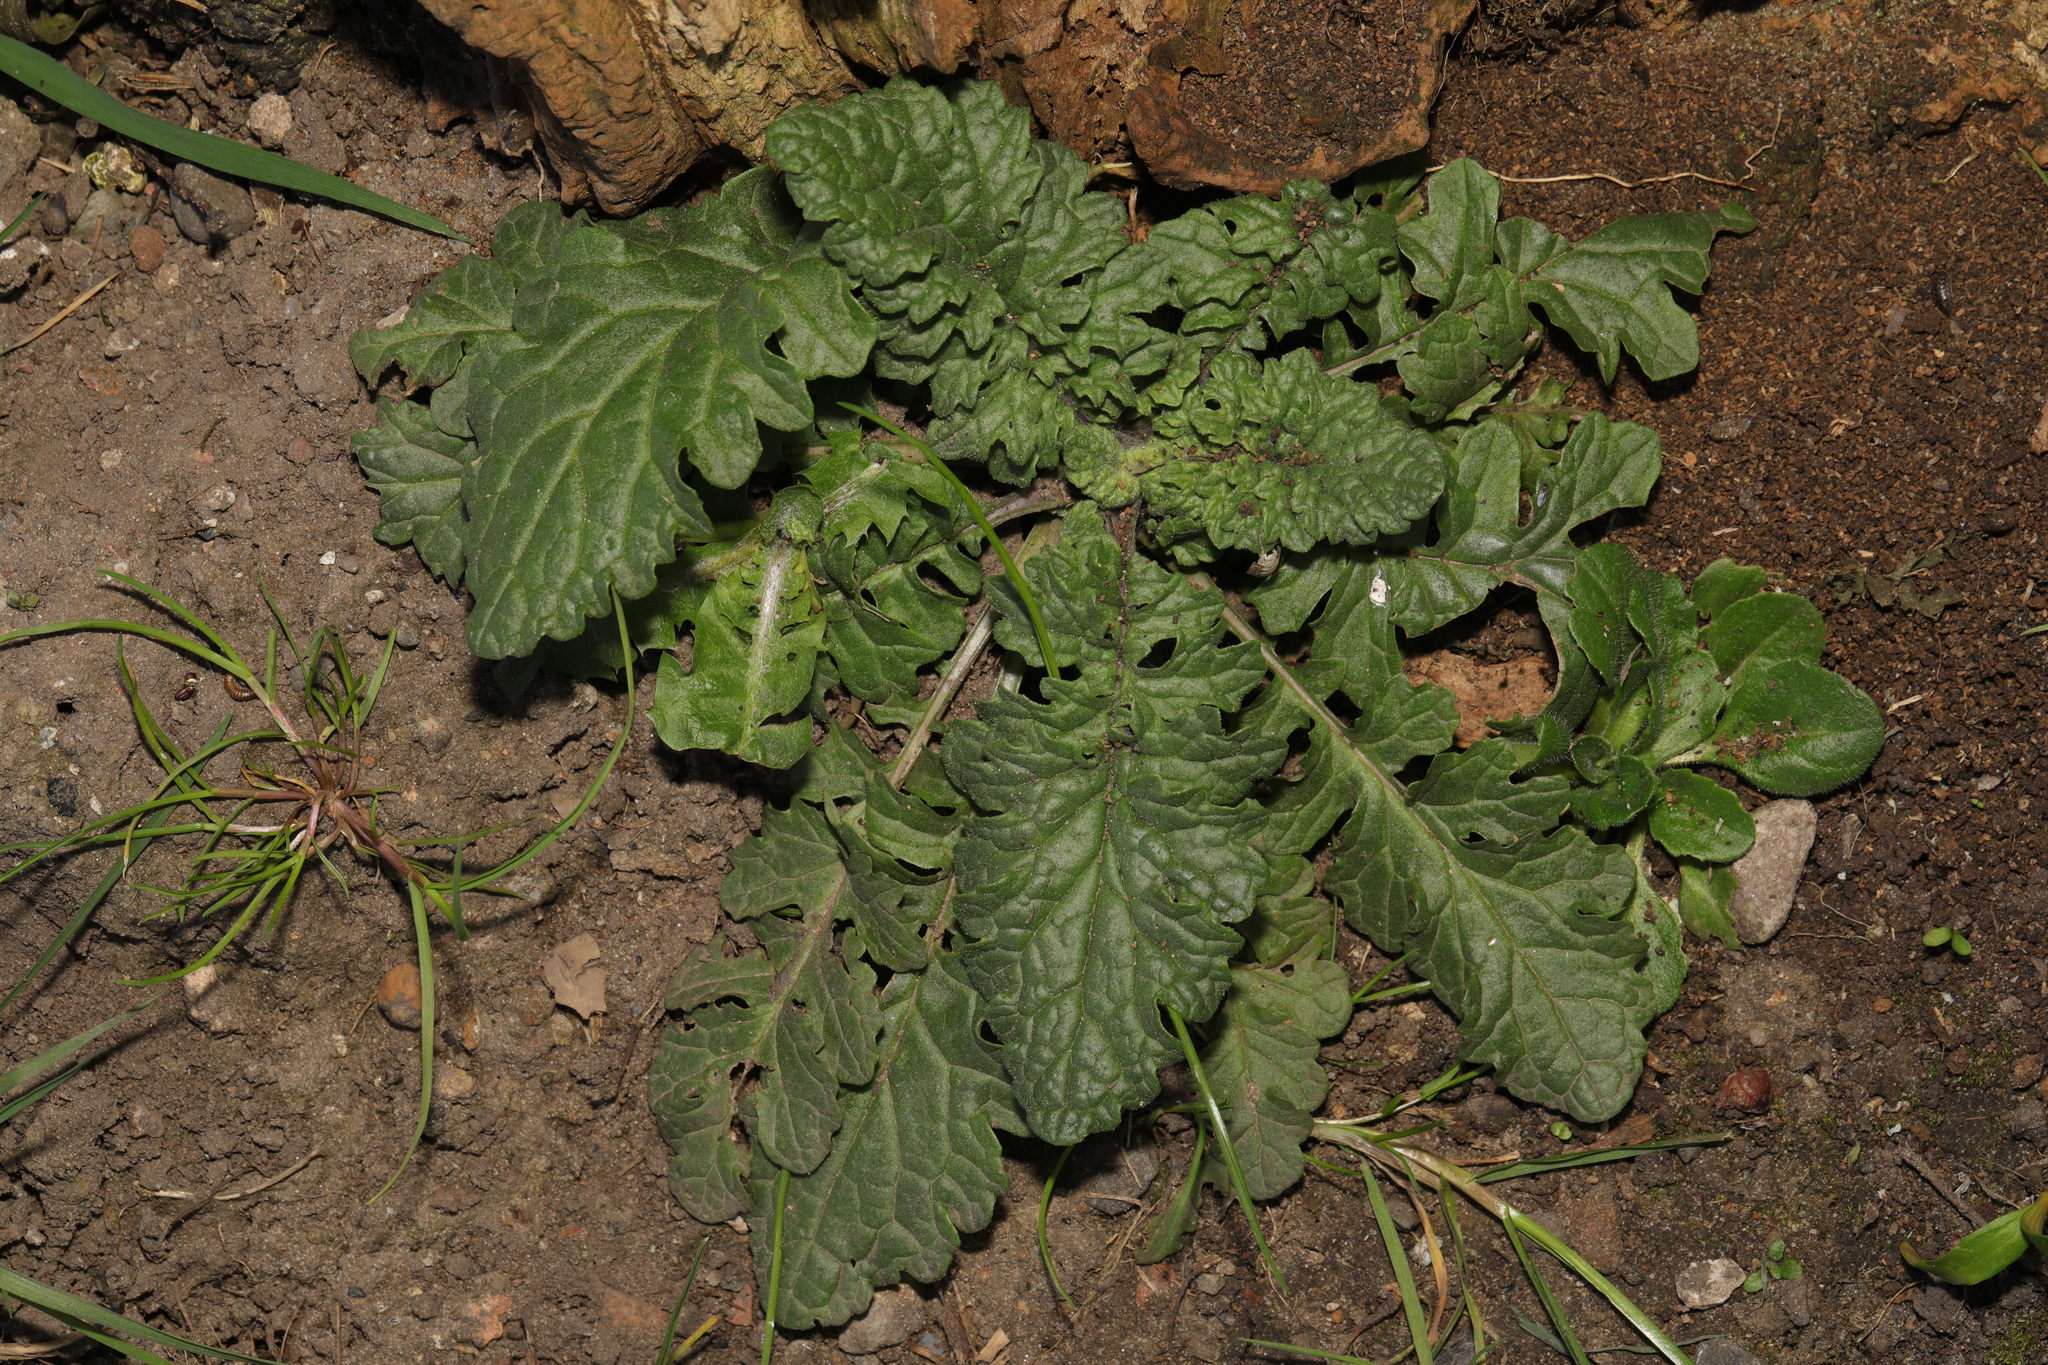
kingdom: Plantae
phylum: Tracheophyta
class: Magnoliopsida
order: Asterales
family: Asteraceae
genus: Jacobaea
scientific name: Jacobaea vulgaris
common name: Stinking willie
